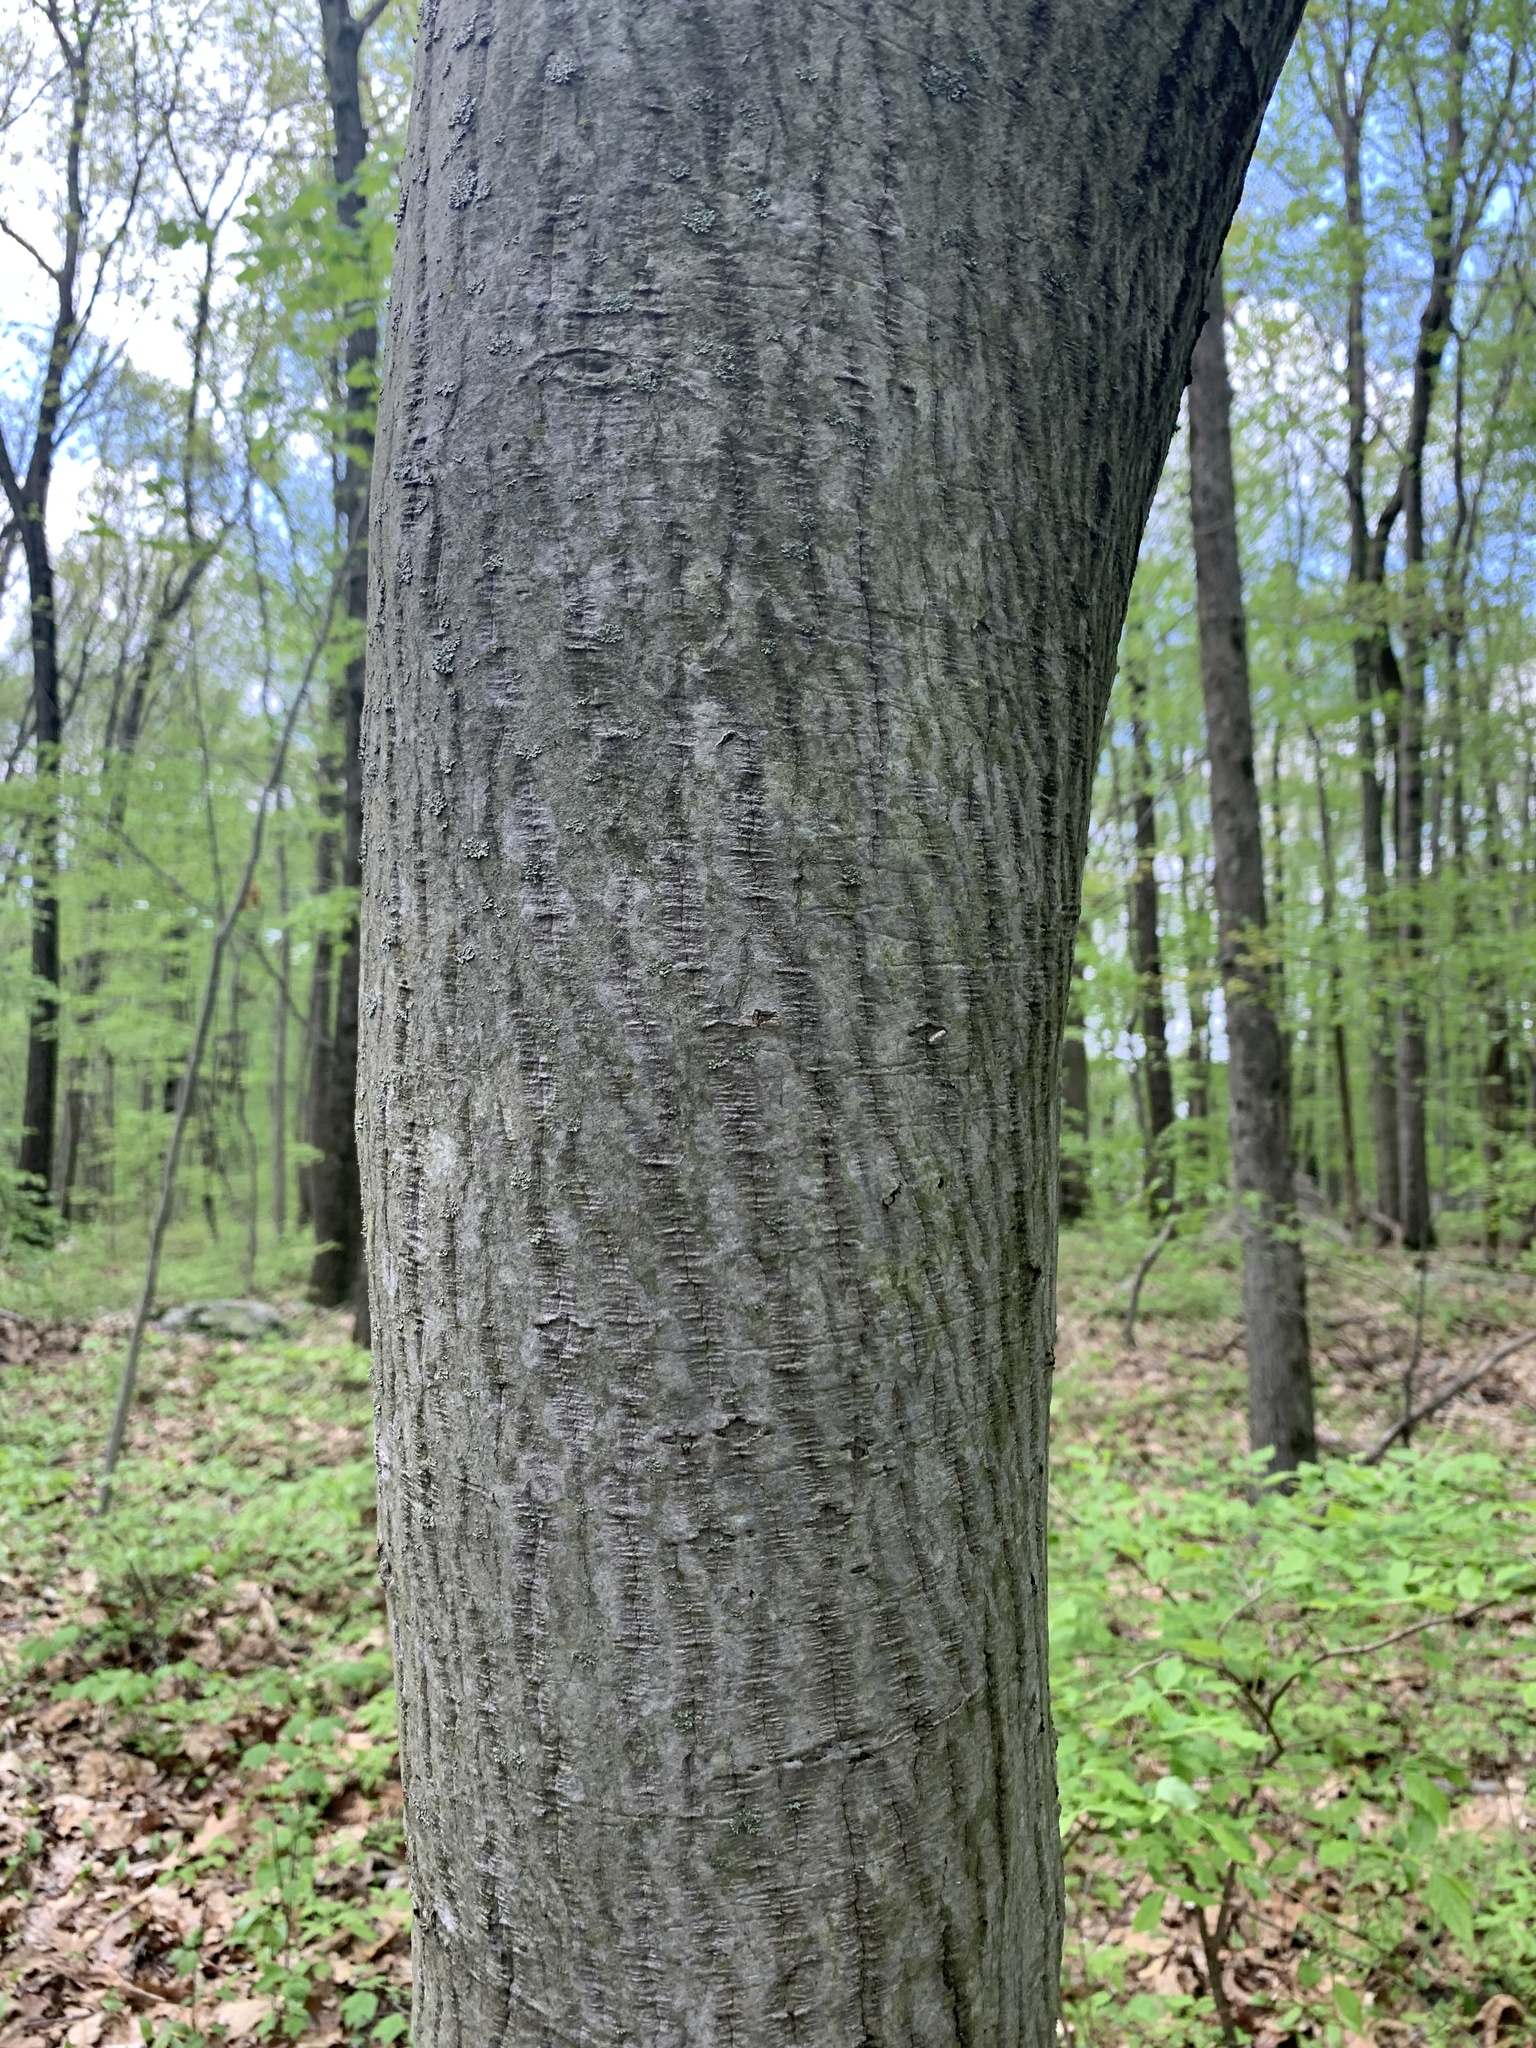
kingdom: Plantae
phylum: Tracheophyta
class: Magnoliopsida
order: Rosales
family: Rosaceae
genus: Amelanchier
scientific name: Amelanchier arborea
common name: Downy serviceberry
